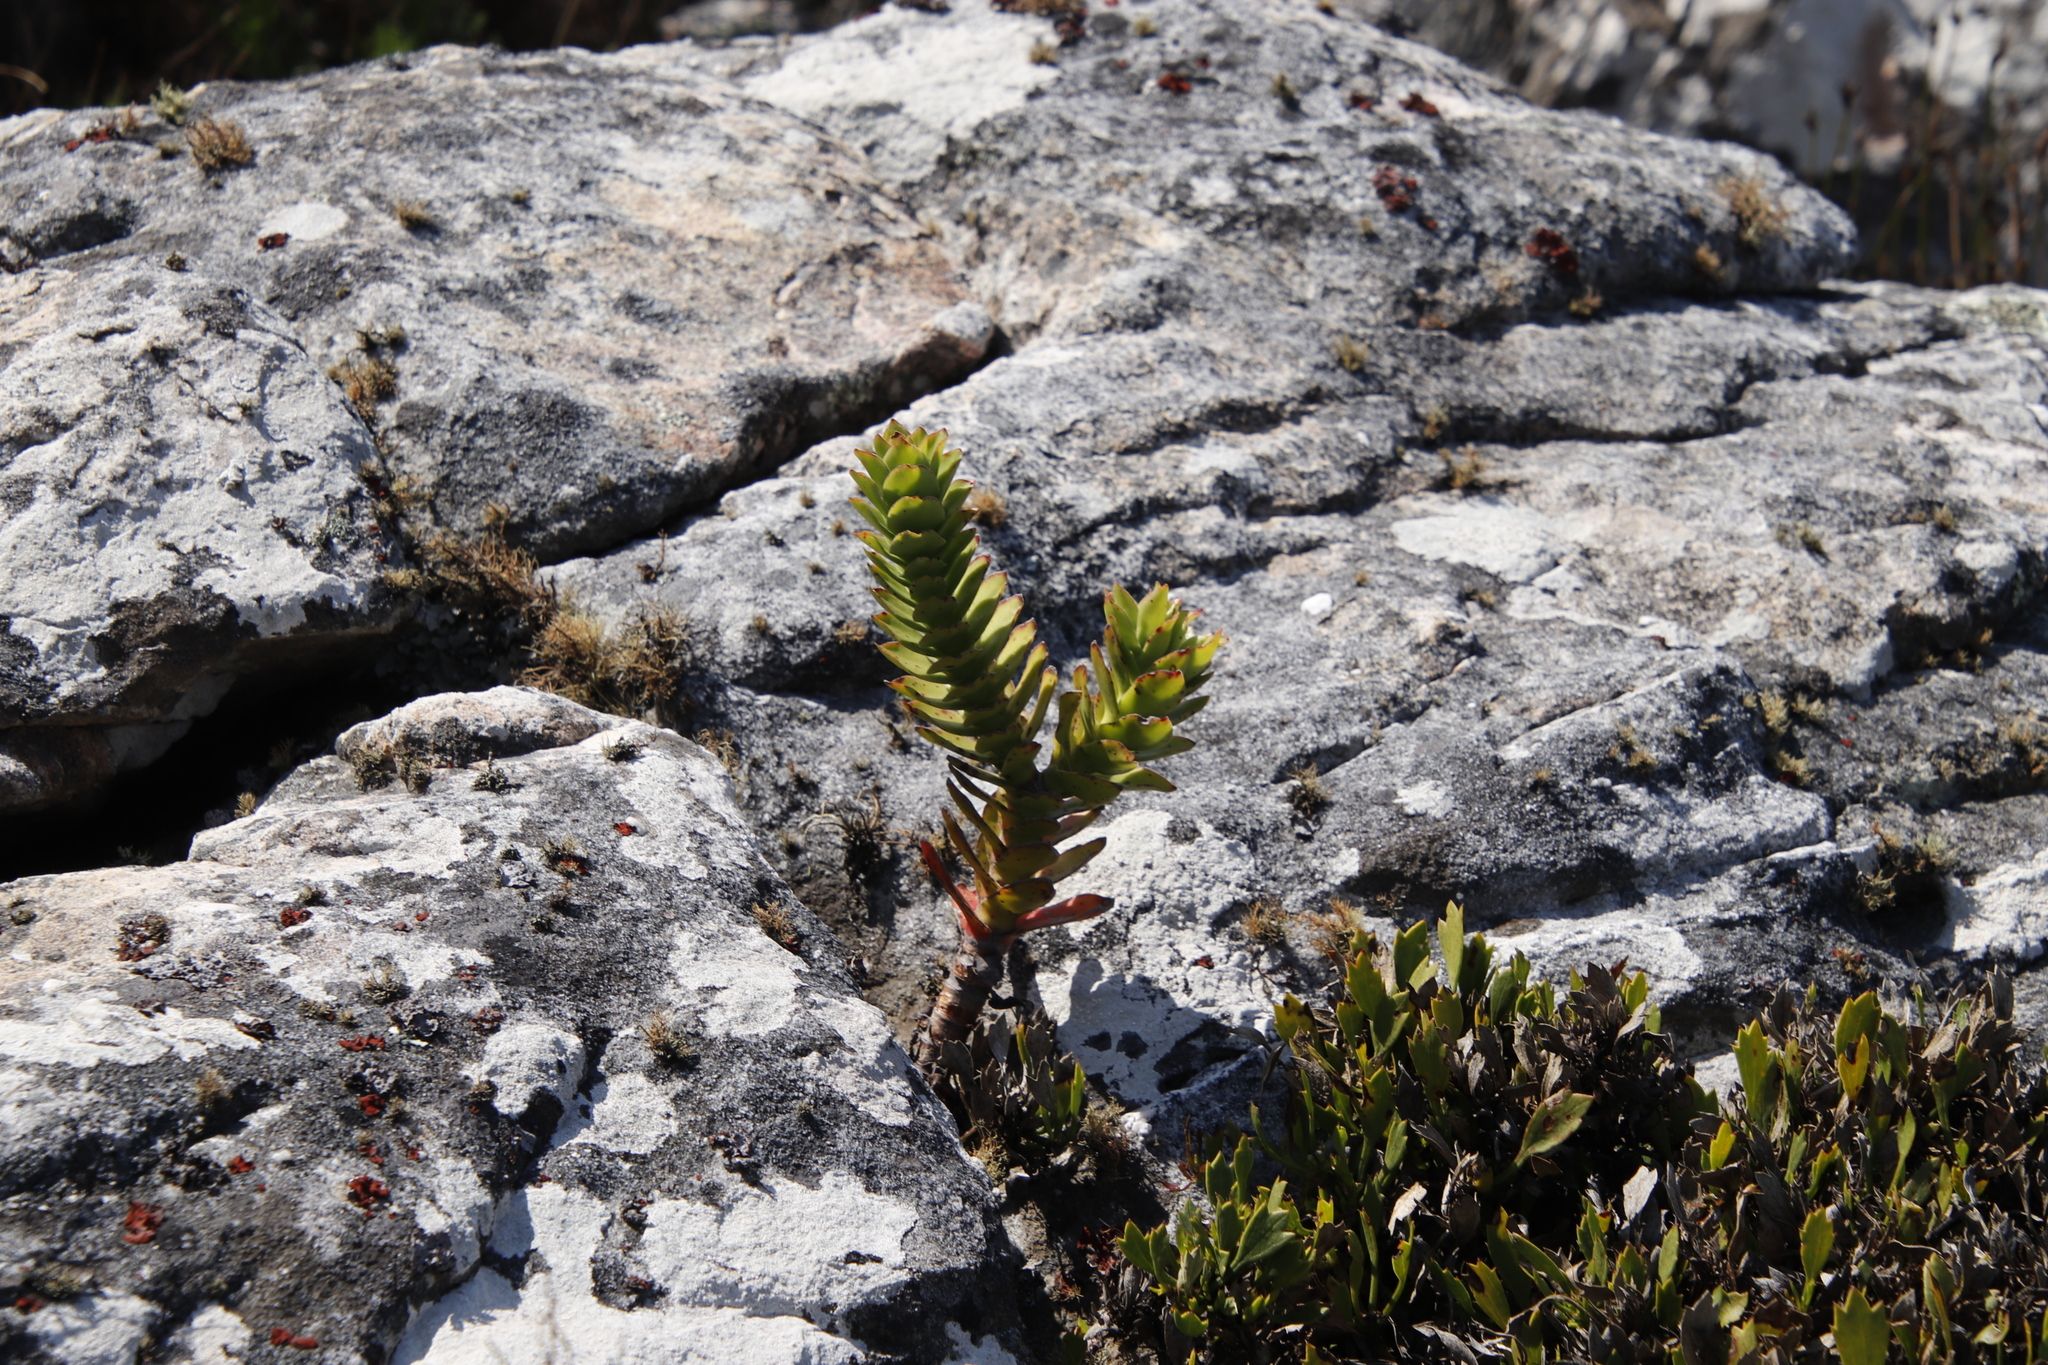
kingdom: Plantae
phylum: Tracheophyta
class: Magnoliopsida
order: Saxifragales
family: Crassulaceae
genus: Crassula
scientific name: Crassula coccinea
